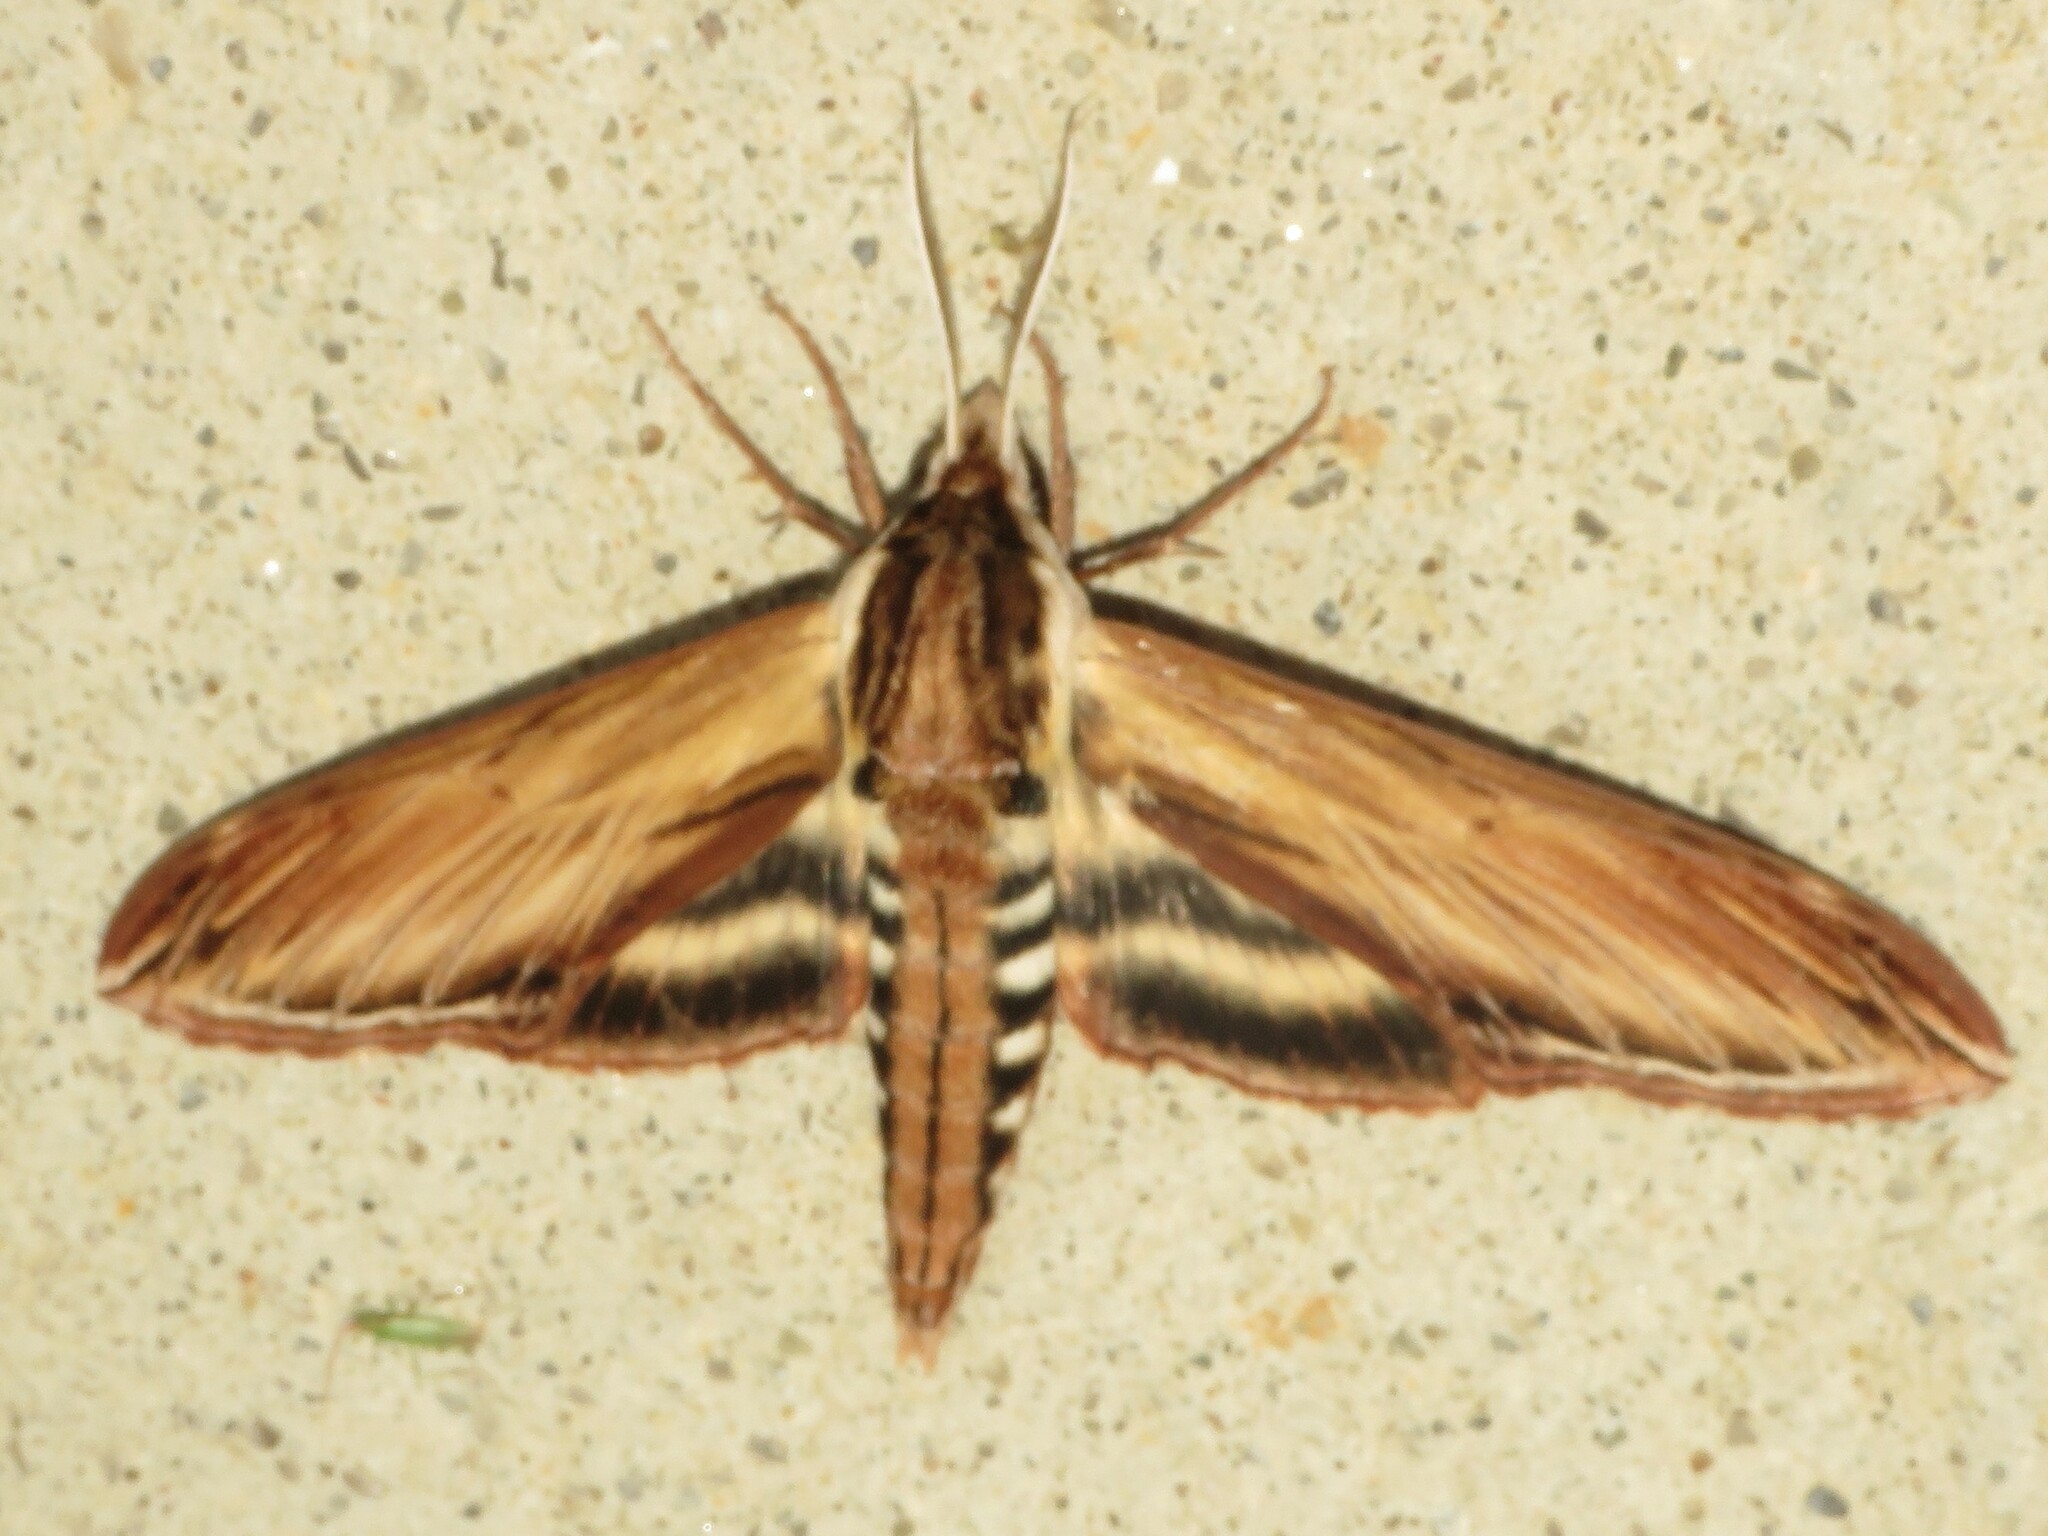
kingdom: Animalia
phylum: Arthropoda
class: Insecta
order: Lepidoptera
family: Sphingidae
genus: Sphinx
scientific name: Sphinx kalmiae
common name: Laurel sphinx
